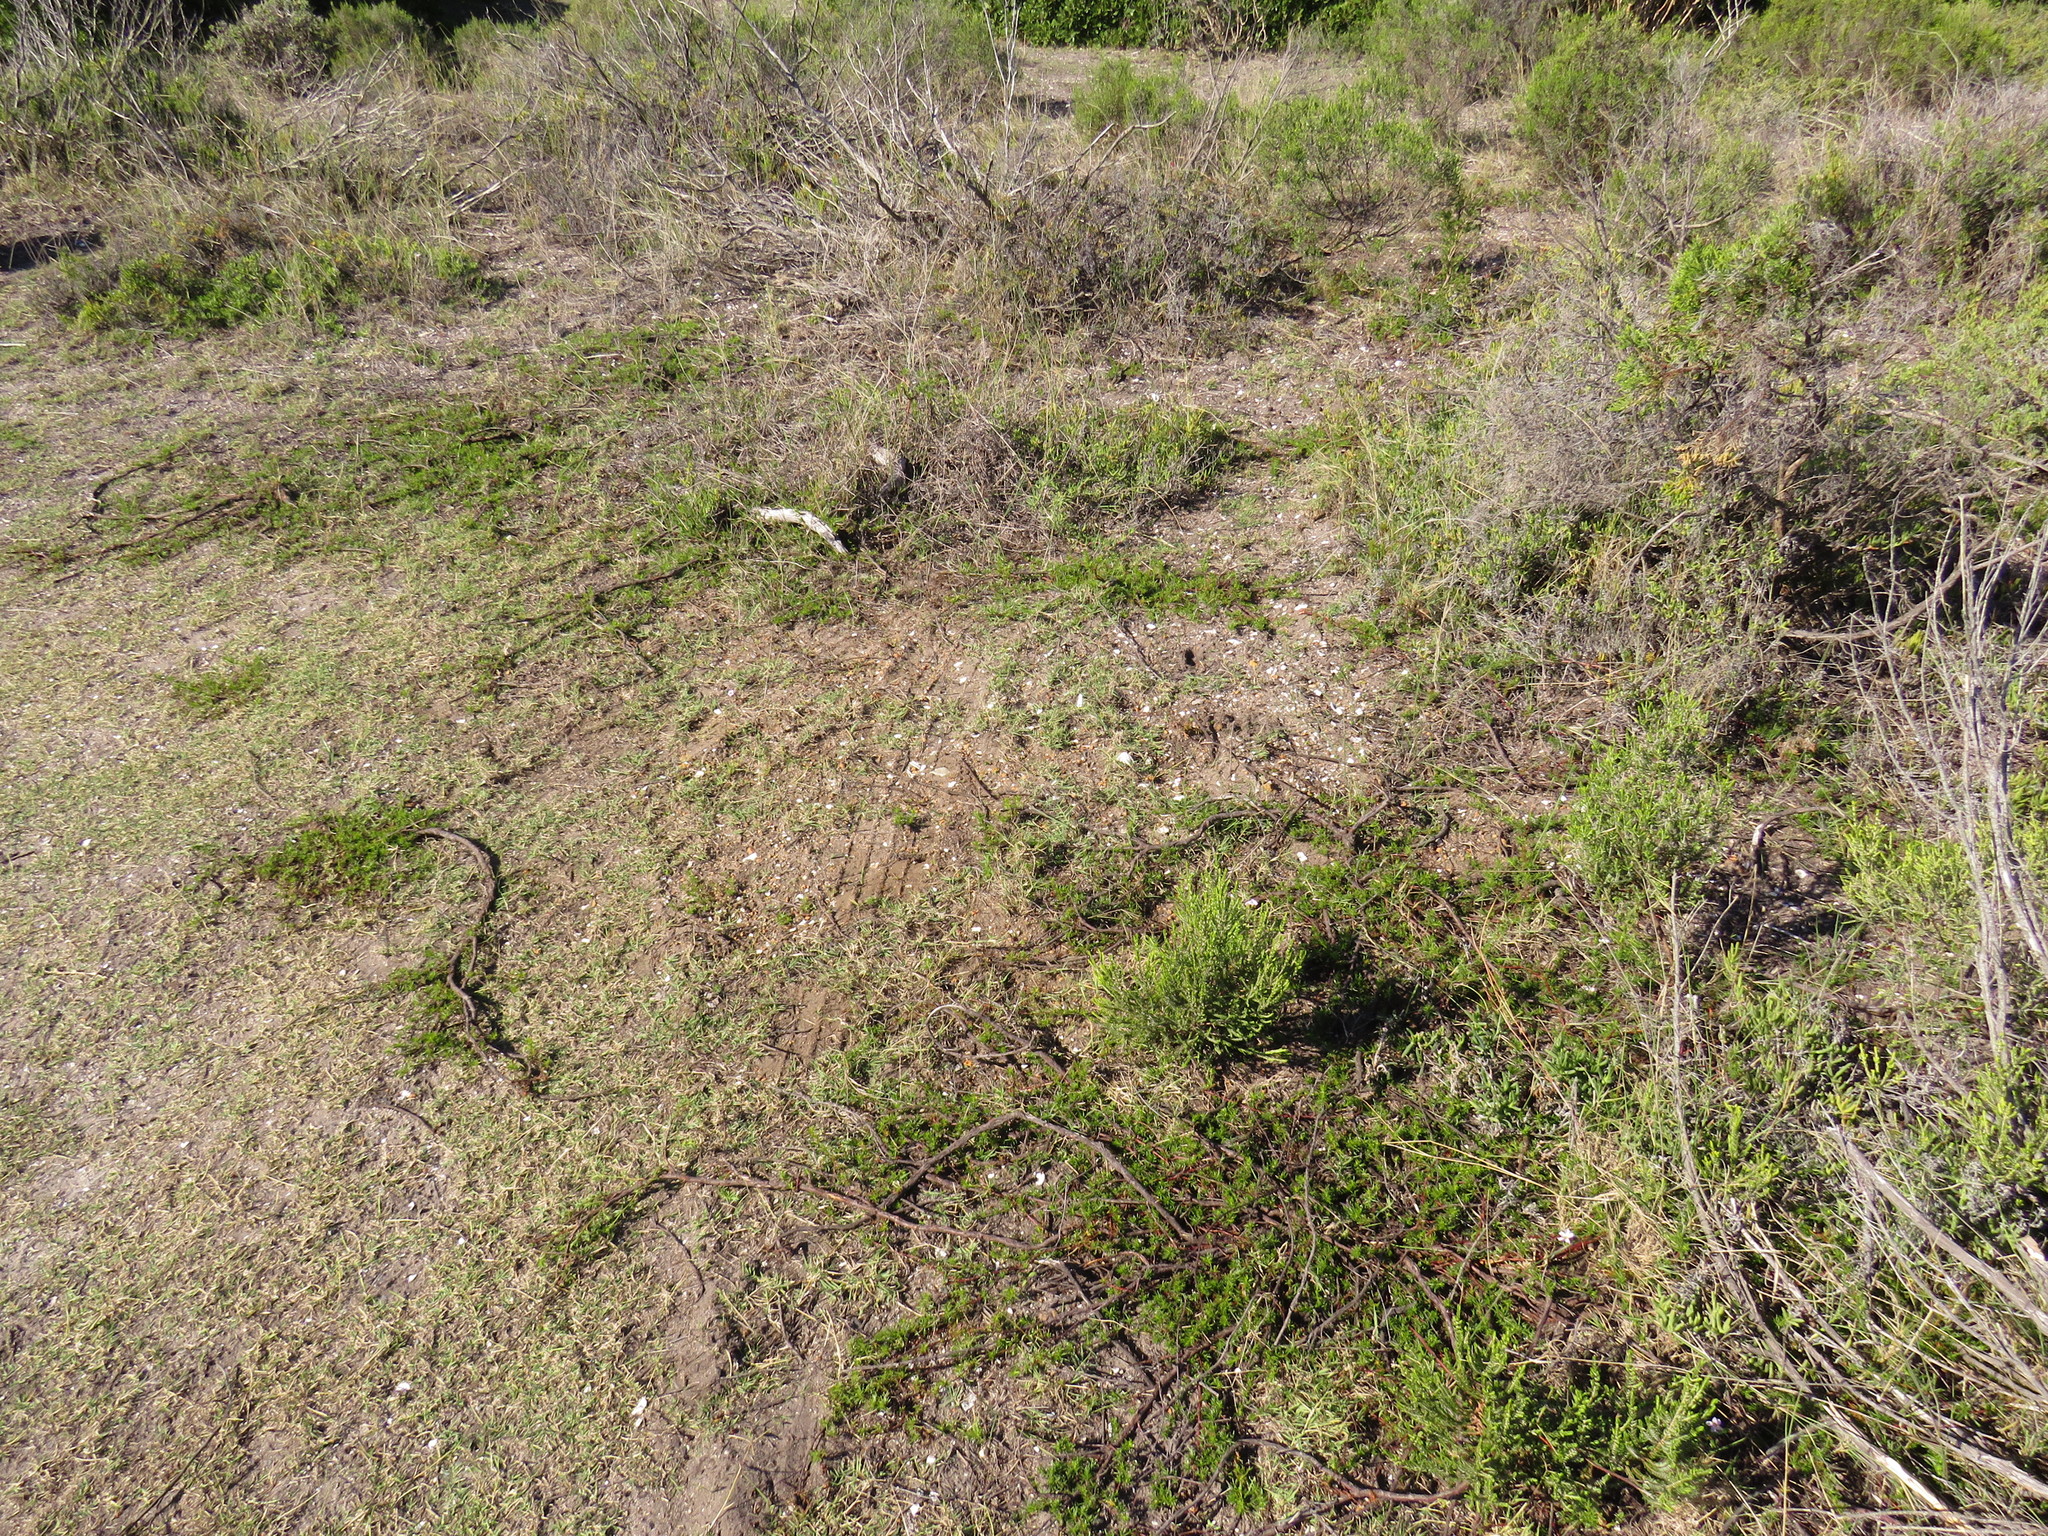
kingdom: Plantae
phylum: Tracheophyta
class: Magnoliopsida
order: Malvales
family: Malvaceae
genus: Hermannia
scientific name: Hermannia
